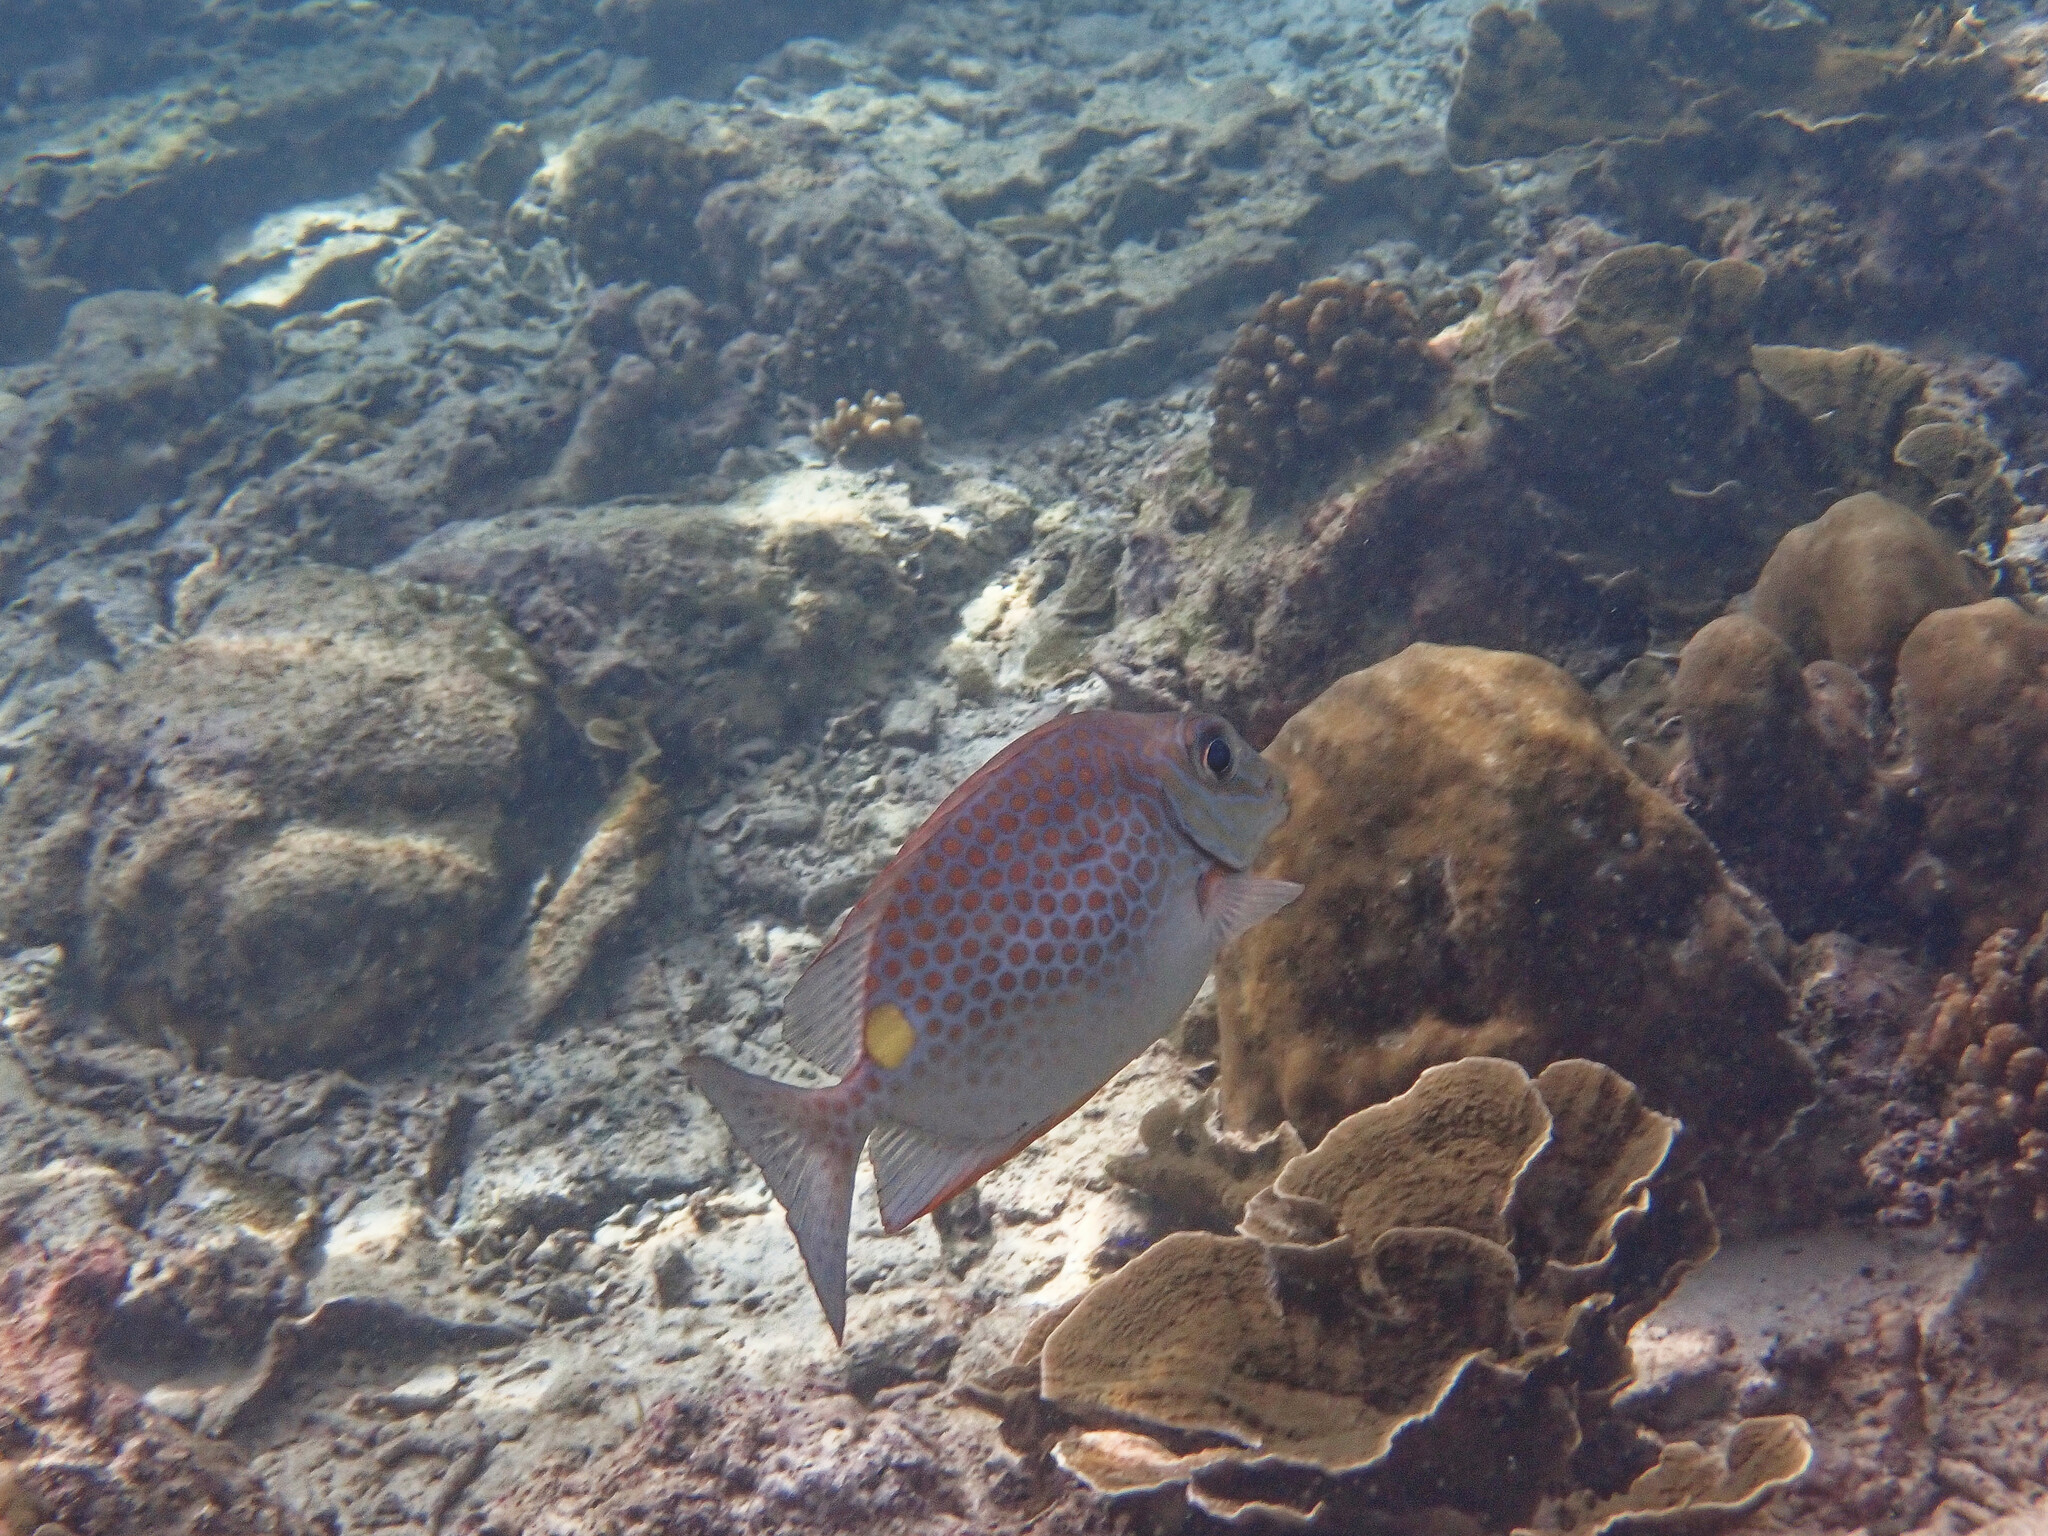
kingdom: Animalia
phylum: Chordata
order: Perciformes
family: Siganidae
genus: Siganus
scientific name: Siganus guttatus
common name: Golden rabbitfish
